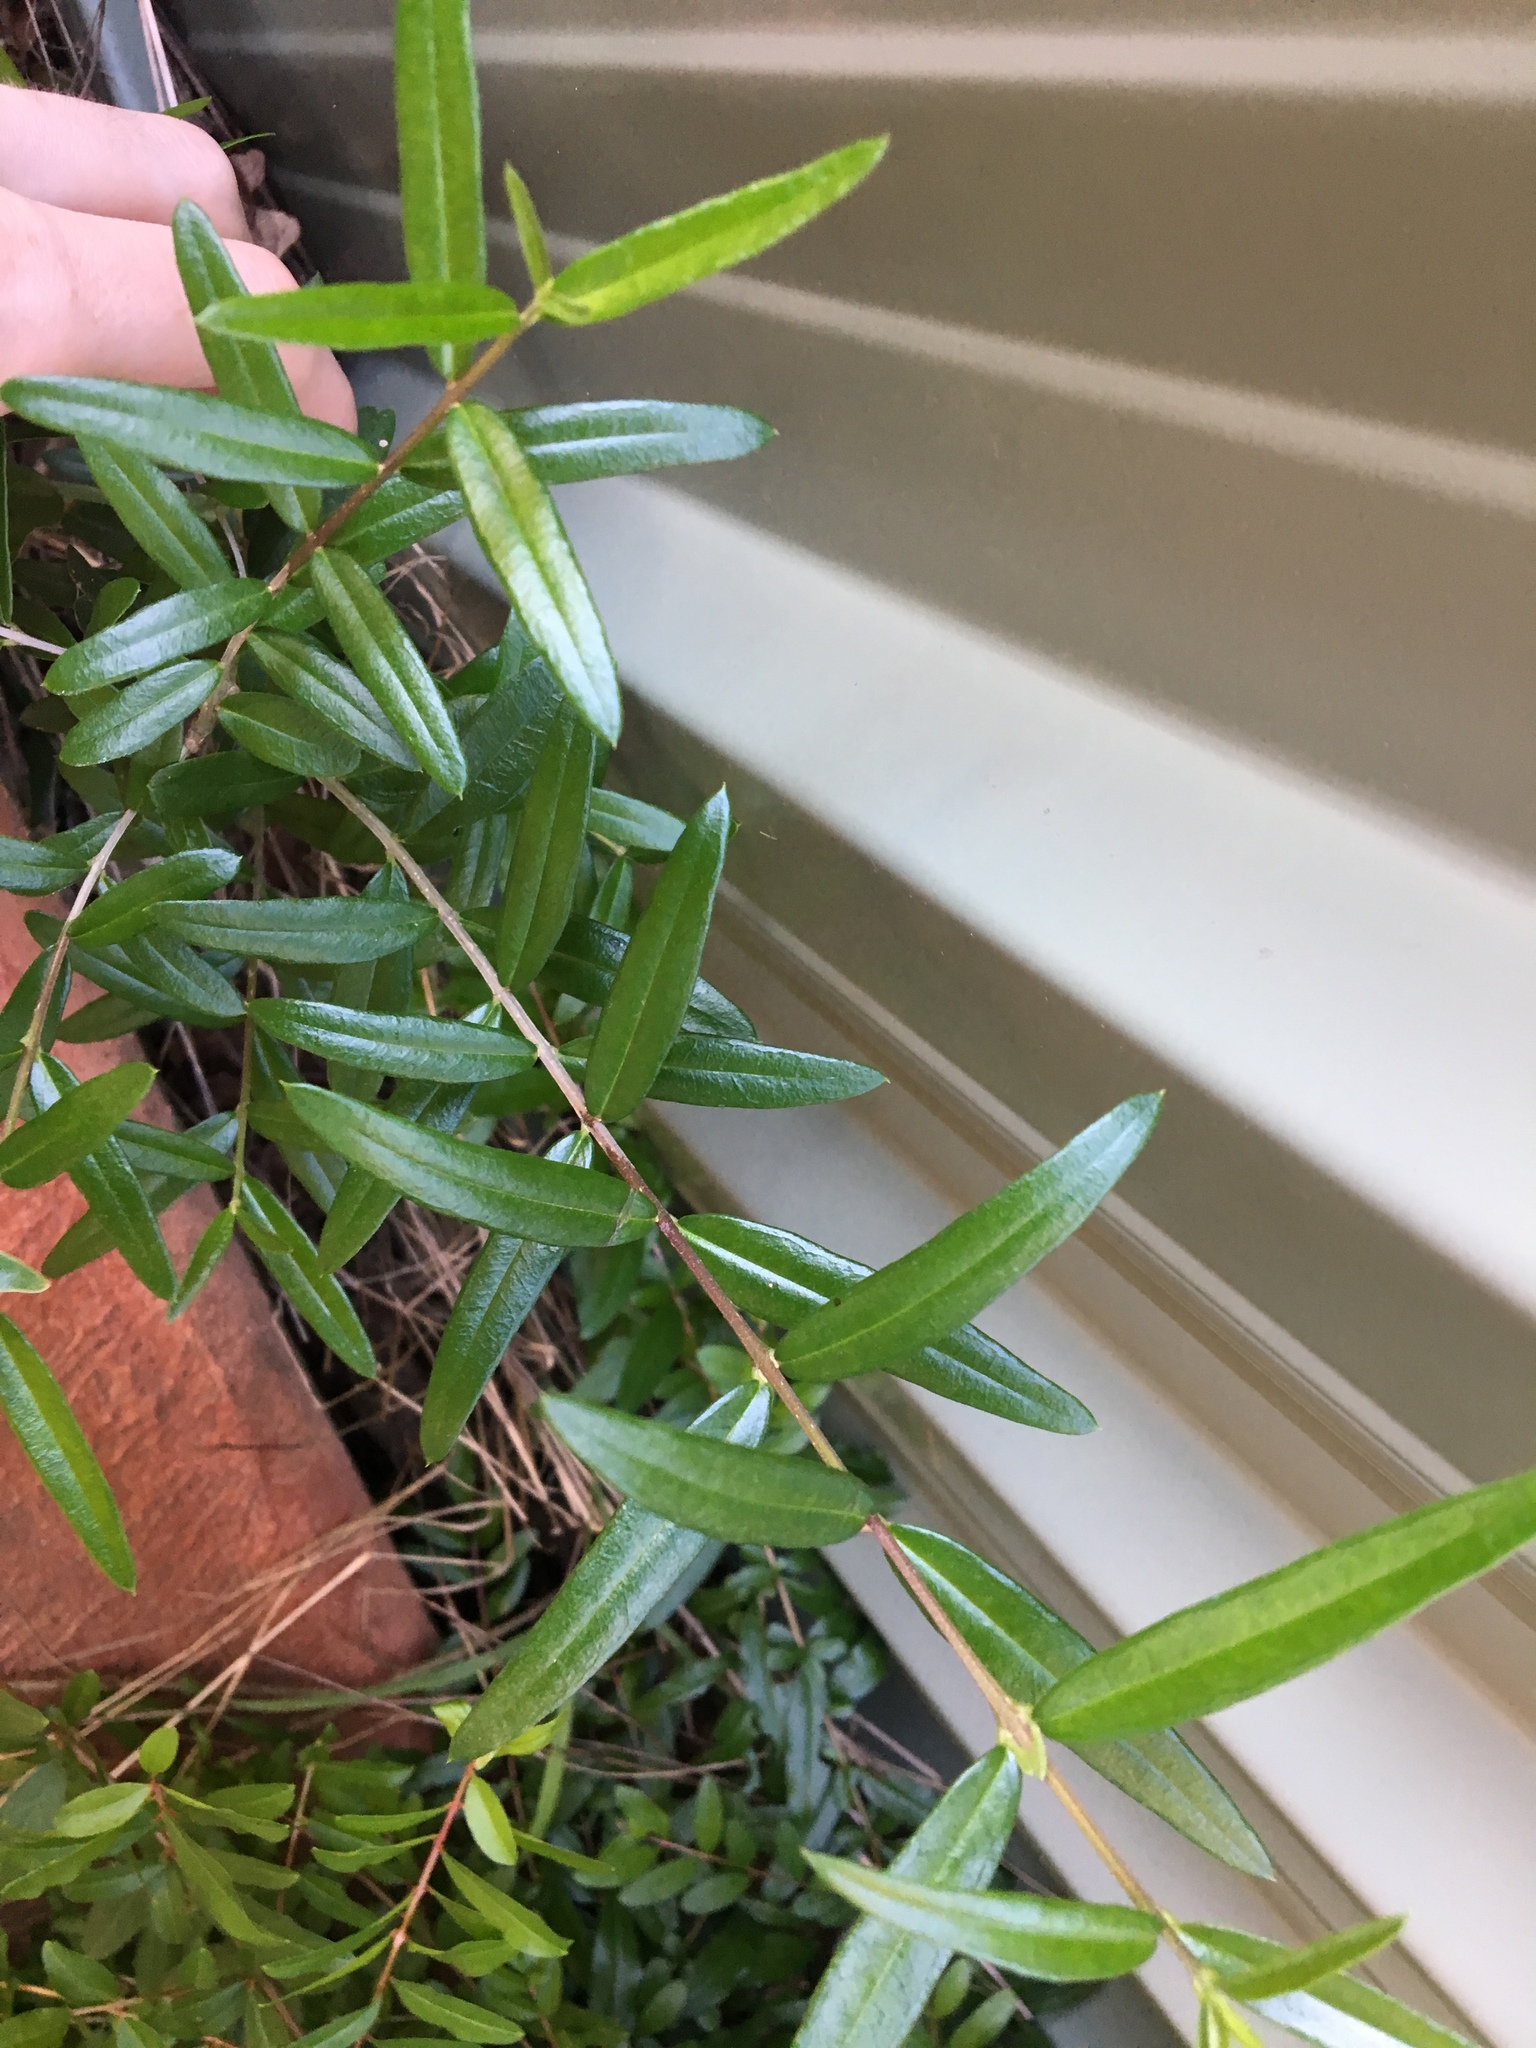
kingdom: Plantae
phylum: Tracheophyta
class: Magnoliopsida
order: Lamiales
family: Oleaceae
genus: Olea
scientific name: Olea europaea
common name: Olive
